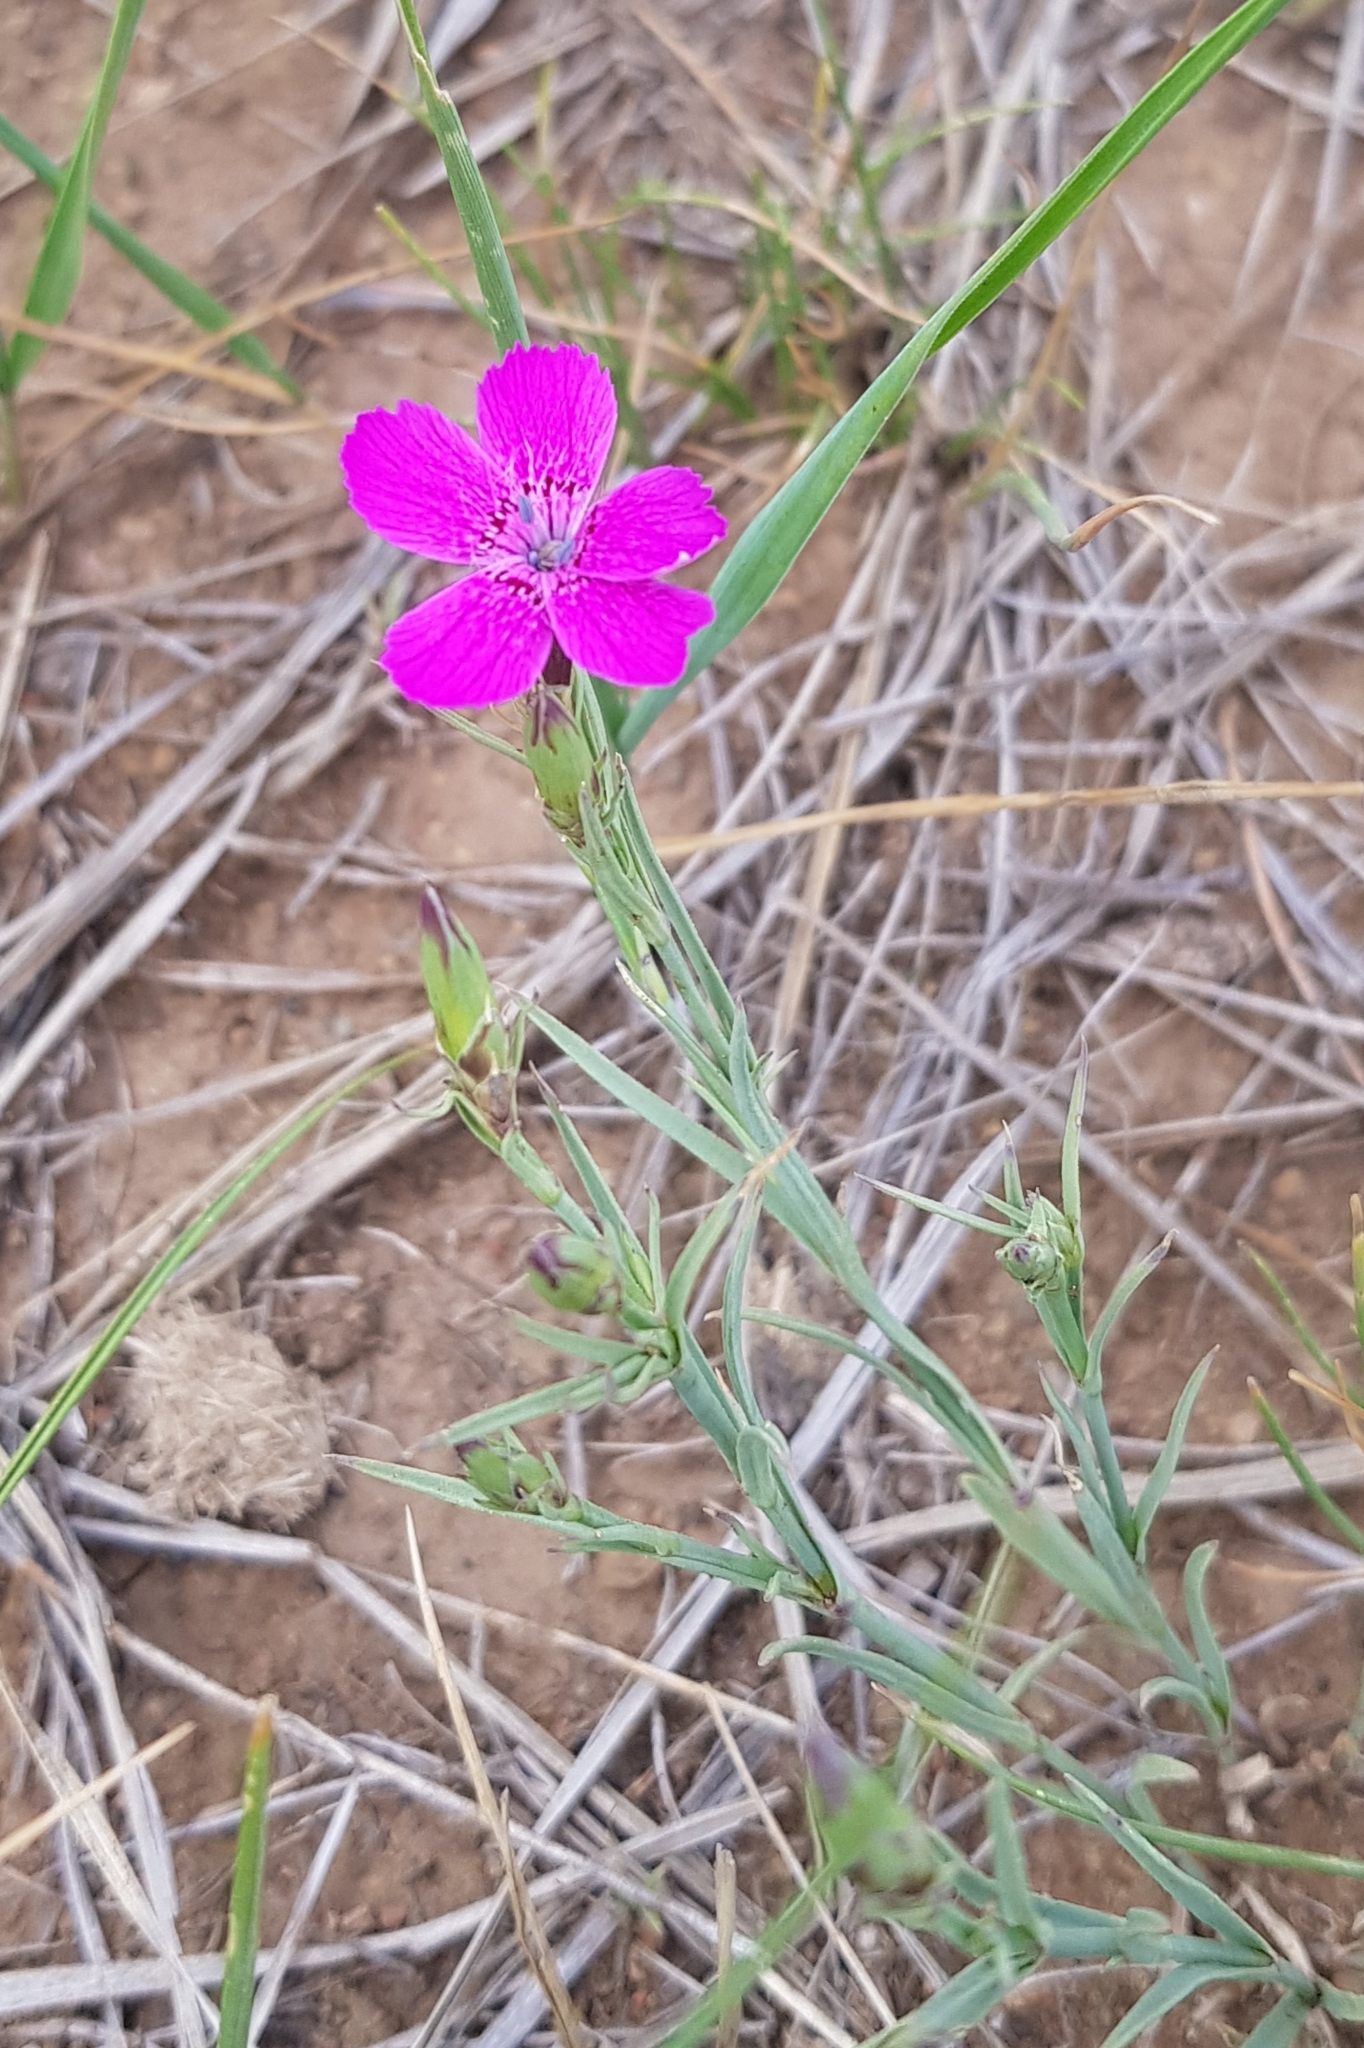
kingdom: Plantae
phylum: Tracheophyta
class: Magnoliopsida
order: Caryophyllales
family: Caryophyllaceae
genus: Dianthus
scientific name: Dianthus chinensis
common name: Rainbow pink
